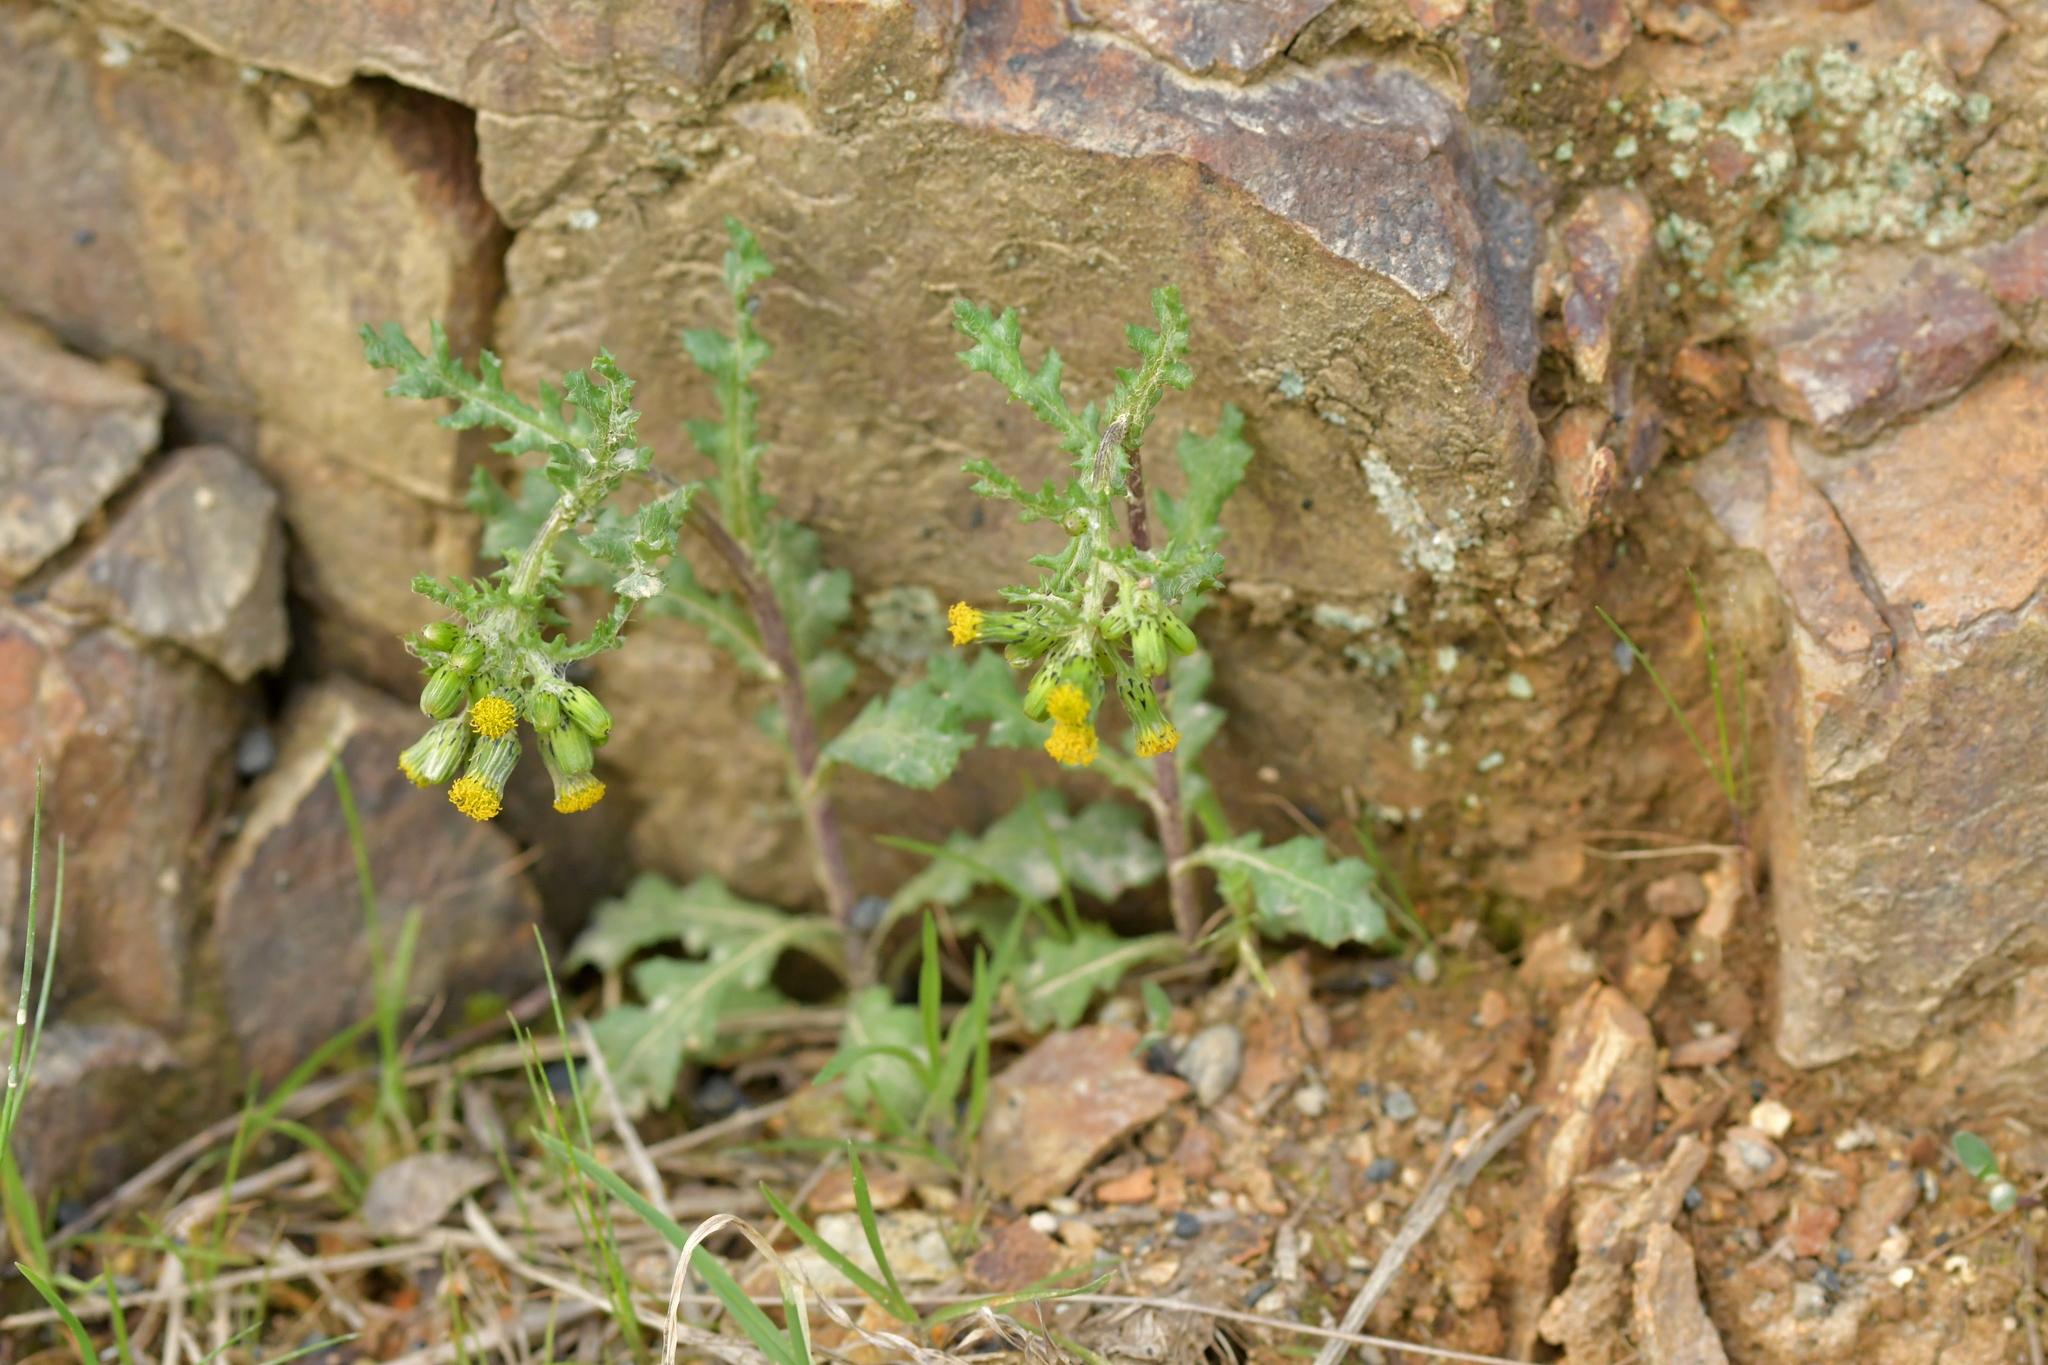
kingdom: Plantae
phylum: Tracheophyta
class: Magnoliopsida
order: Asterales
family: Asteraceae
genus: Senecio
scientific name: Senecio vulgaris
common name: Old-man-in-the-spring
